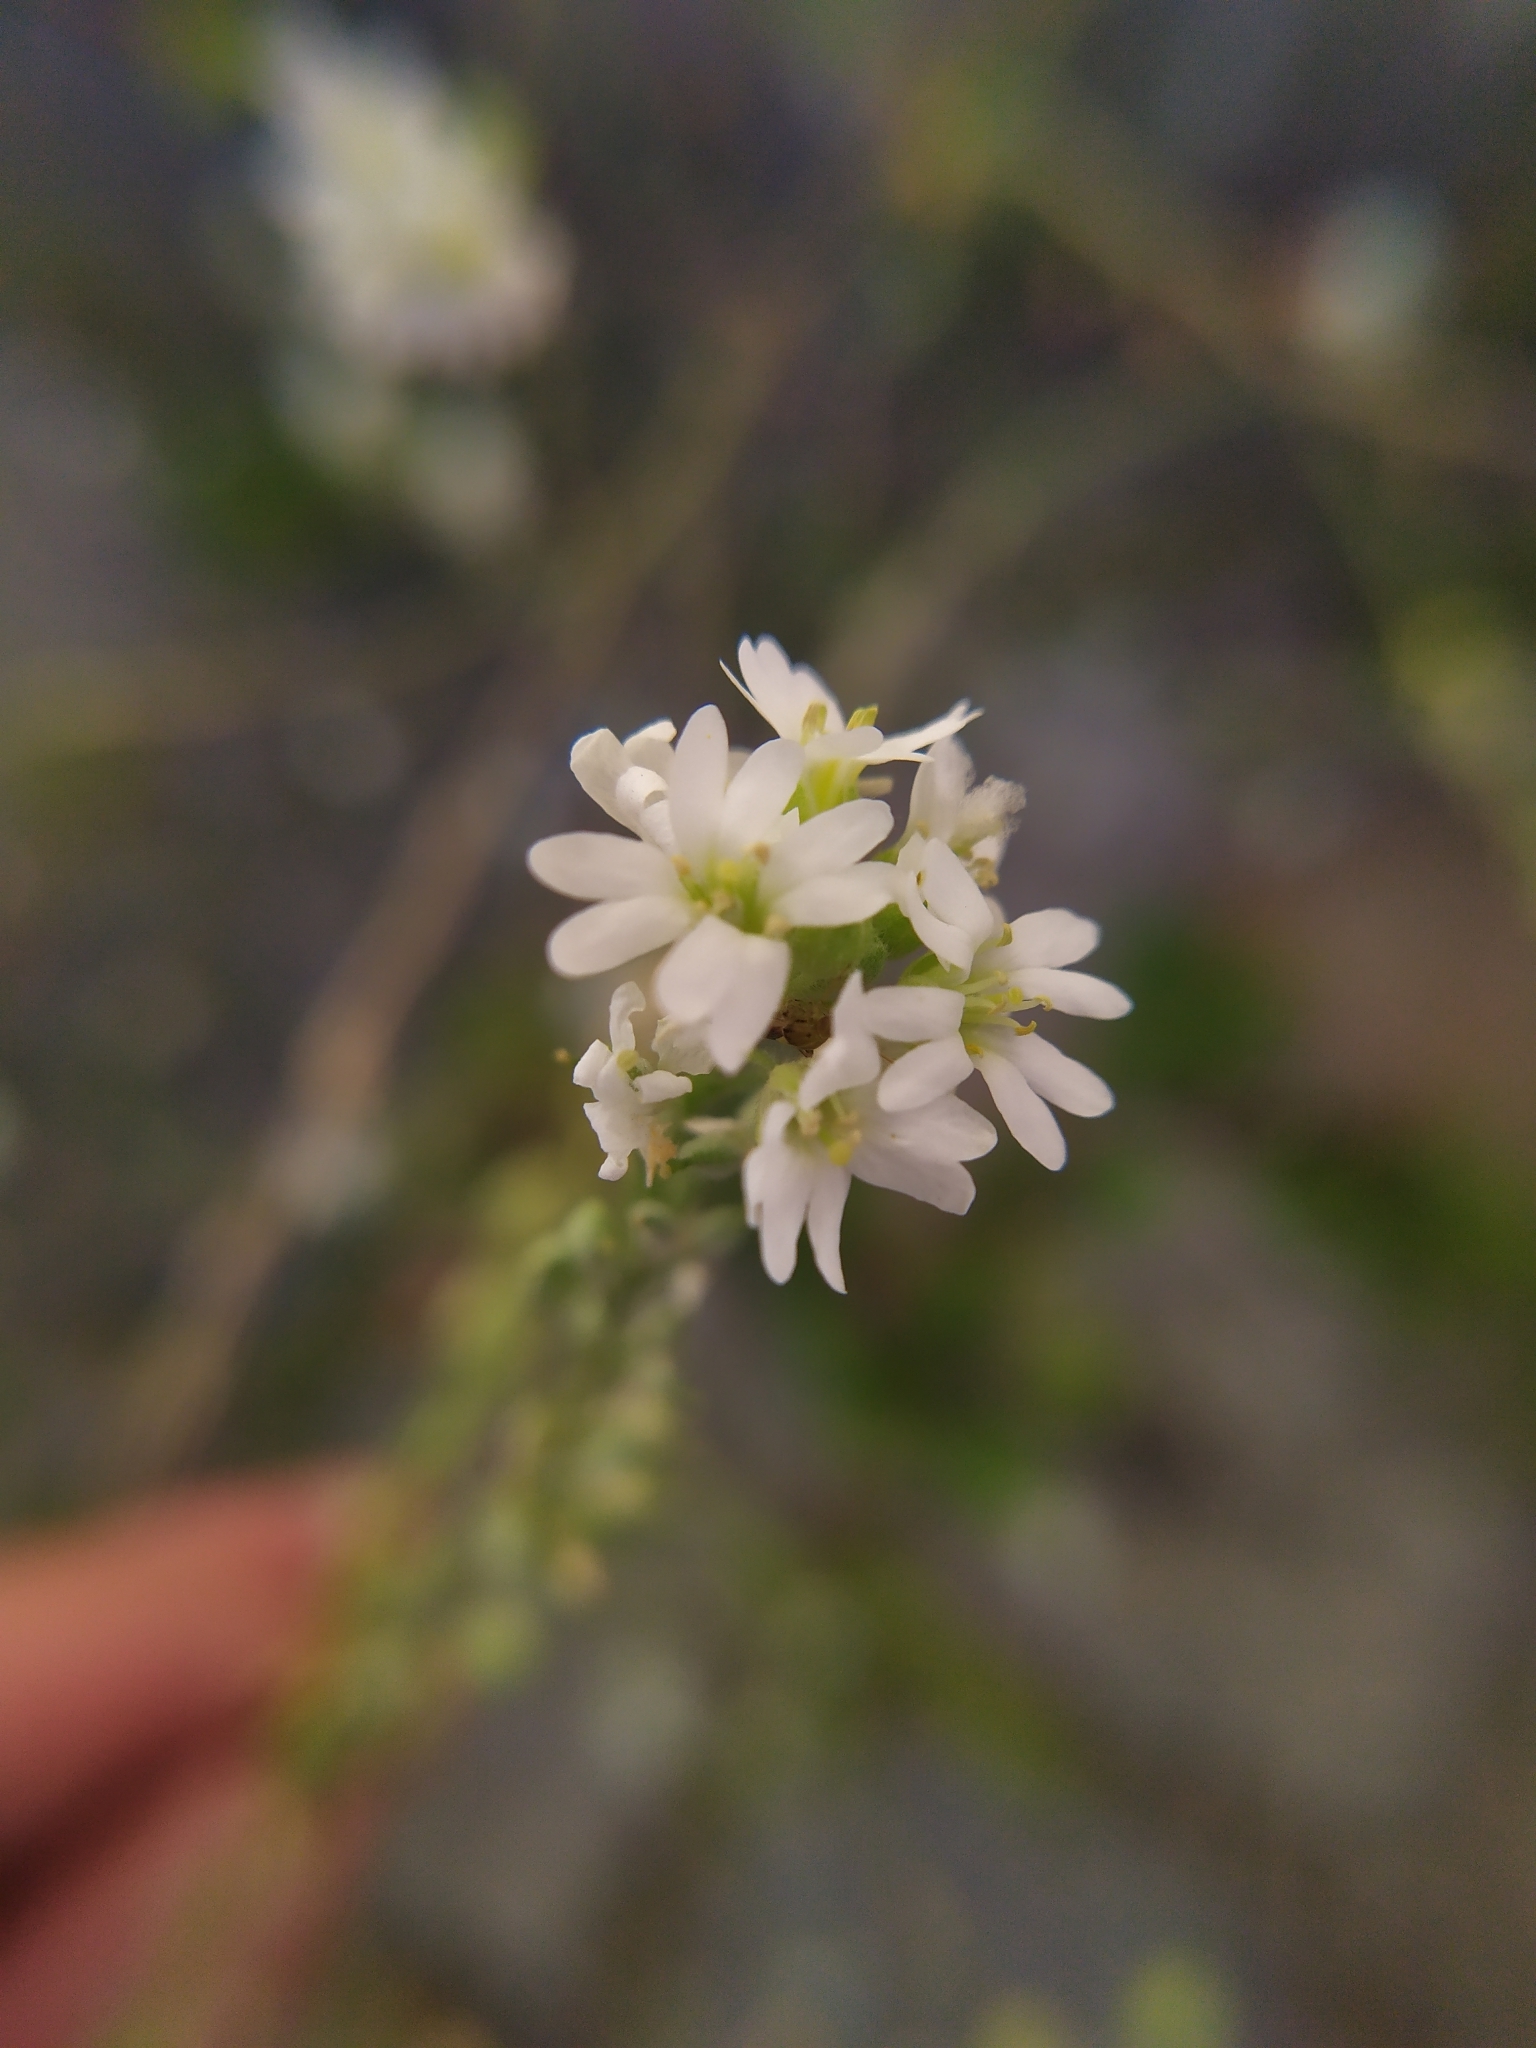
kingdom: Plantae
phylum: Tracheophyta
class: Magnoliopsida
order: Brassicales
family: Brassicaceae
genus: Berteroa
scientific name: Berteroa incana
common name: Hoary alison
